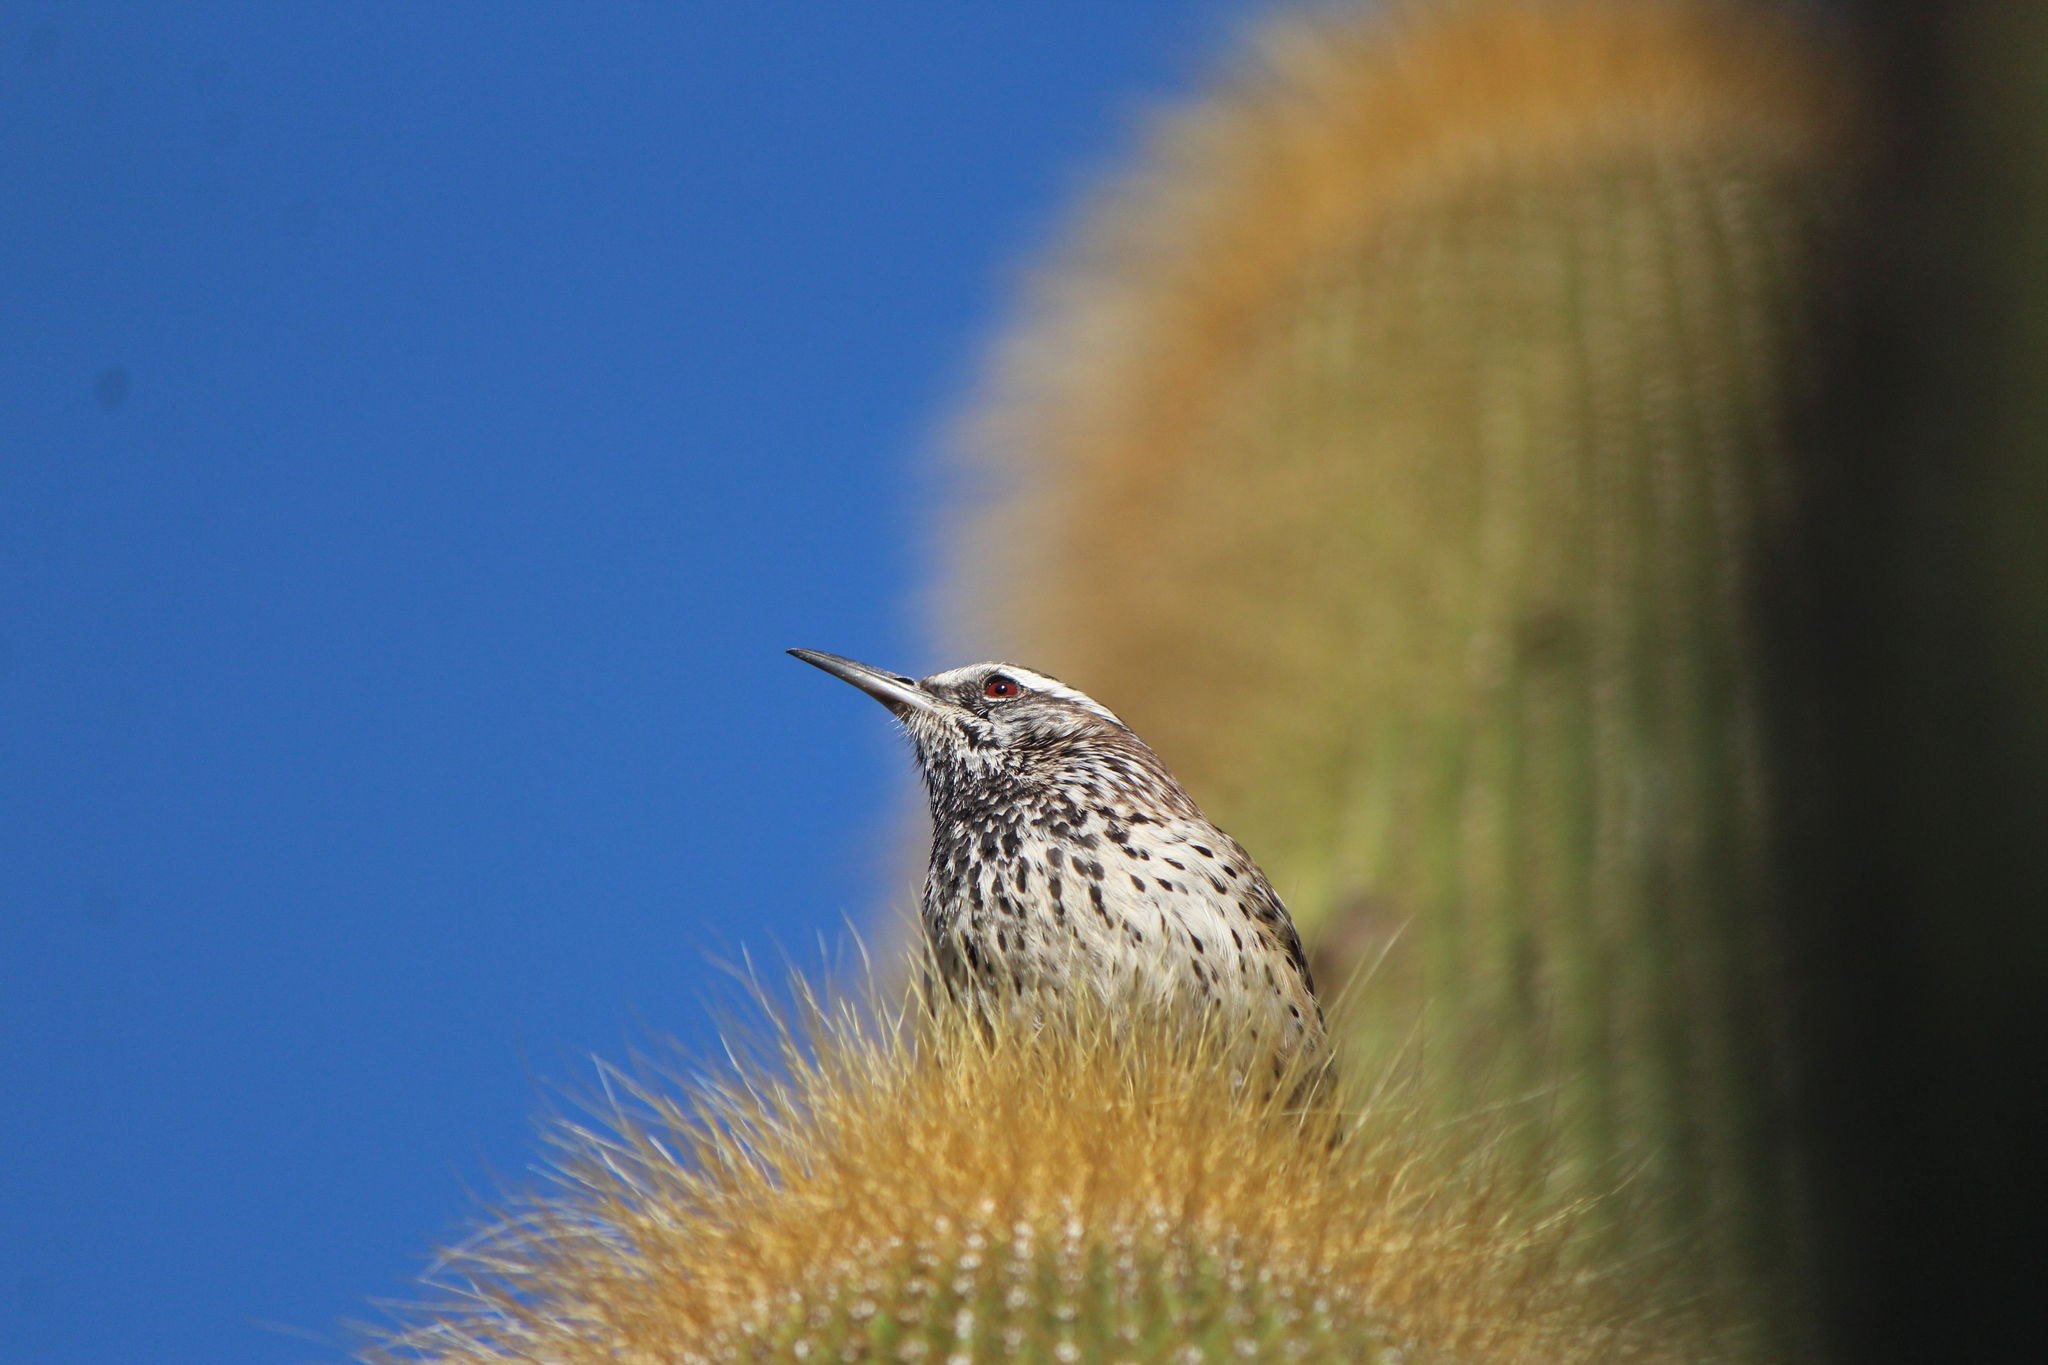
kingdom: Animalia
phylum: Chordata
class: Aves
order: Passeriformes
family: Troglodytidae
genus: Campylorhynchus
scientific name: Campylorhynchus brunneicapillus
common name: Cactus wren
